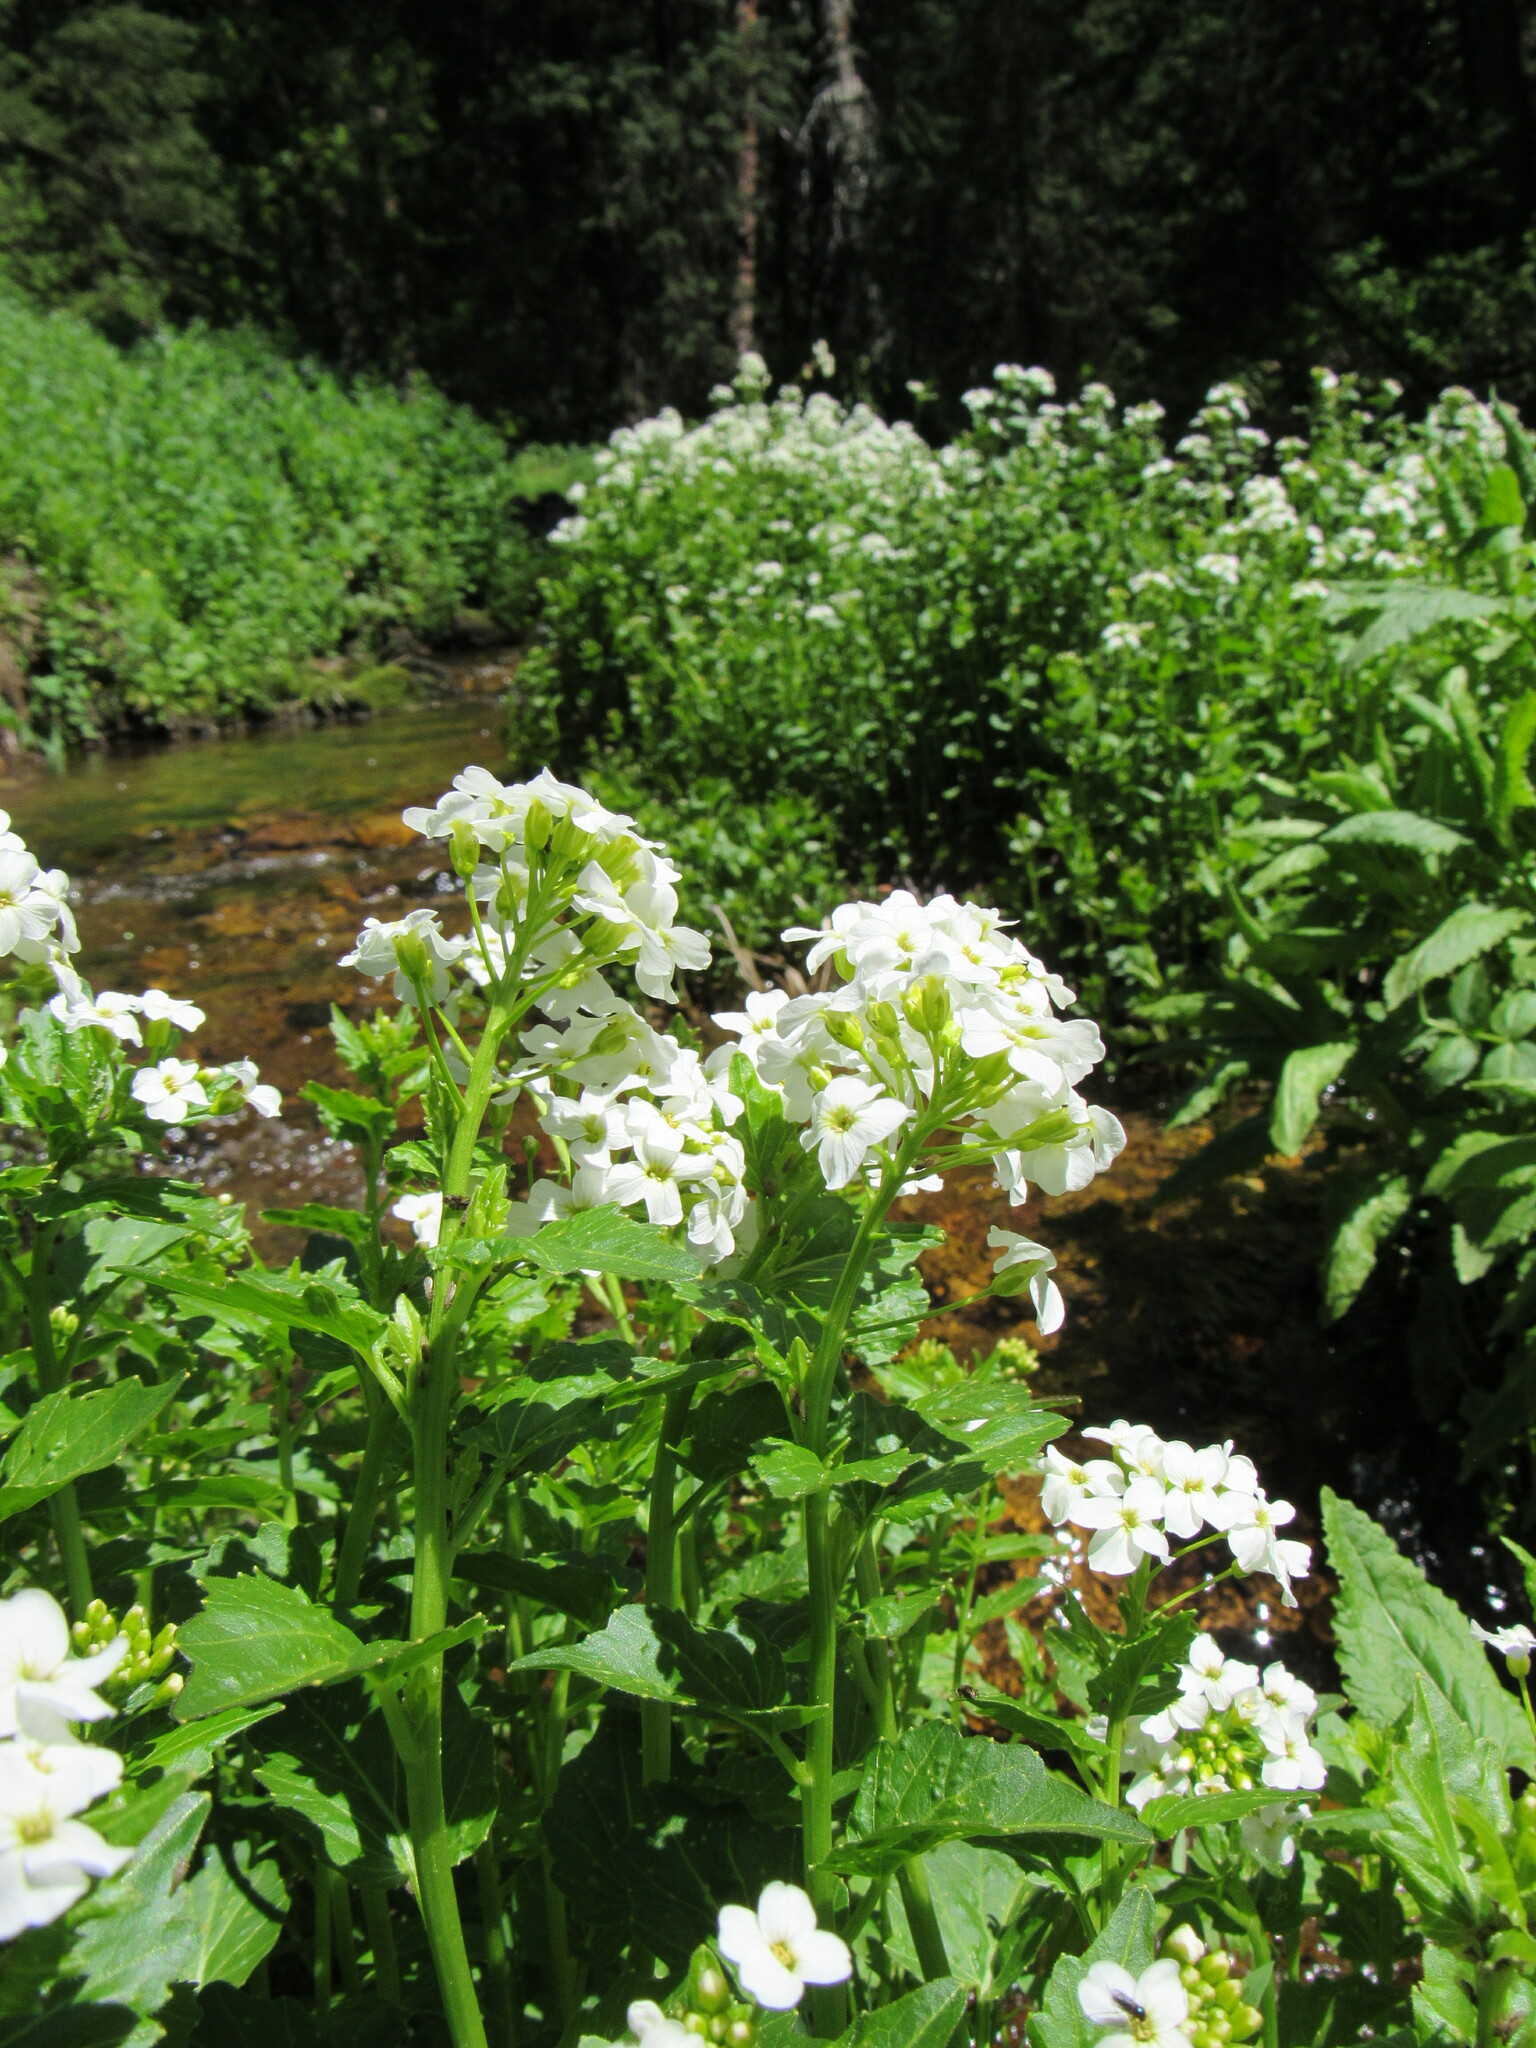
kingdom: Plantae
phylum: Tracheophyta
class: Magnoliopsida
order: Brassicales
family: Brassicaceae
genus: Cardamine
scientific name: Cardamine cordifolia
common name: Heart-leaf bittercress
